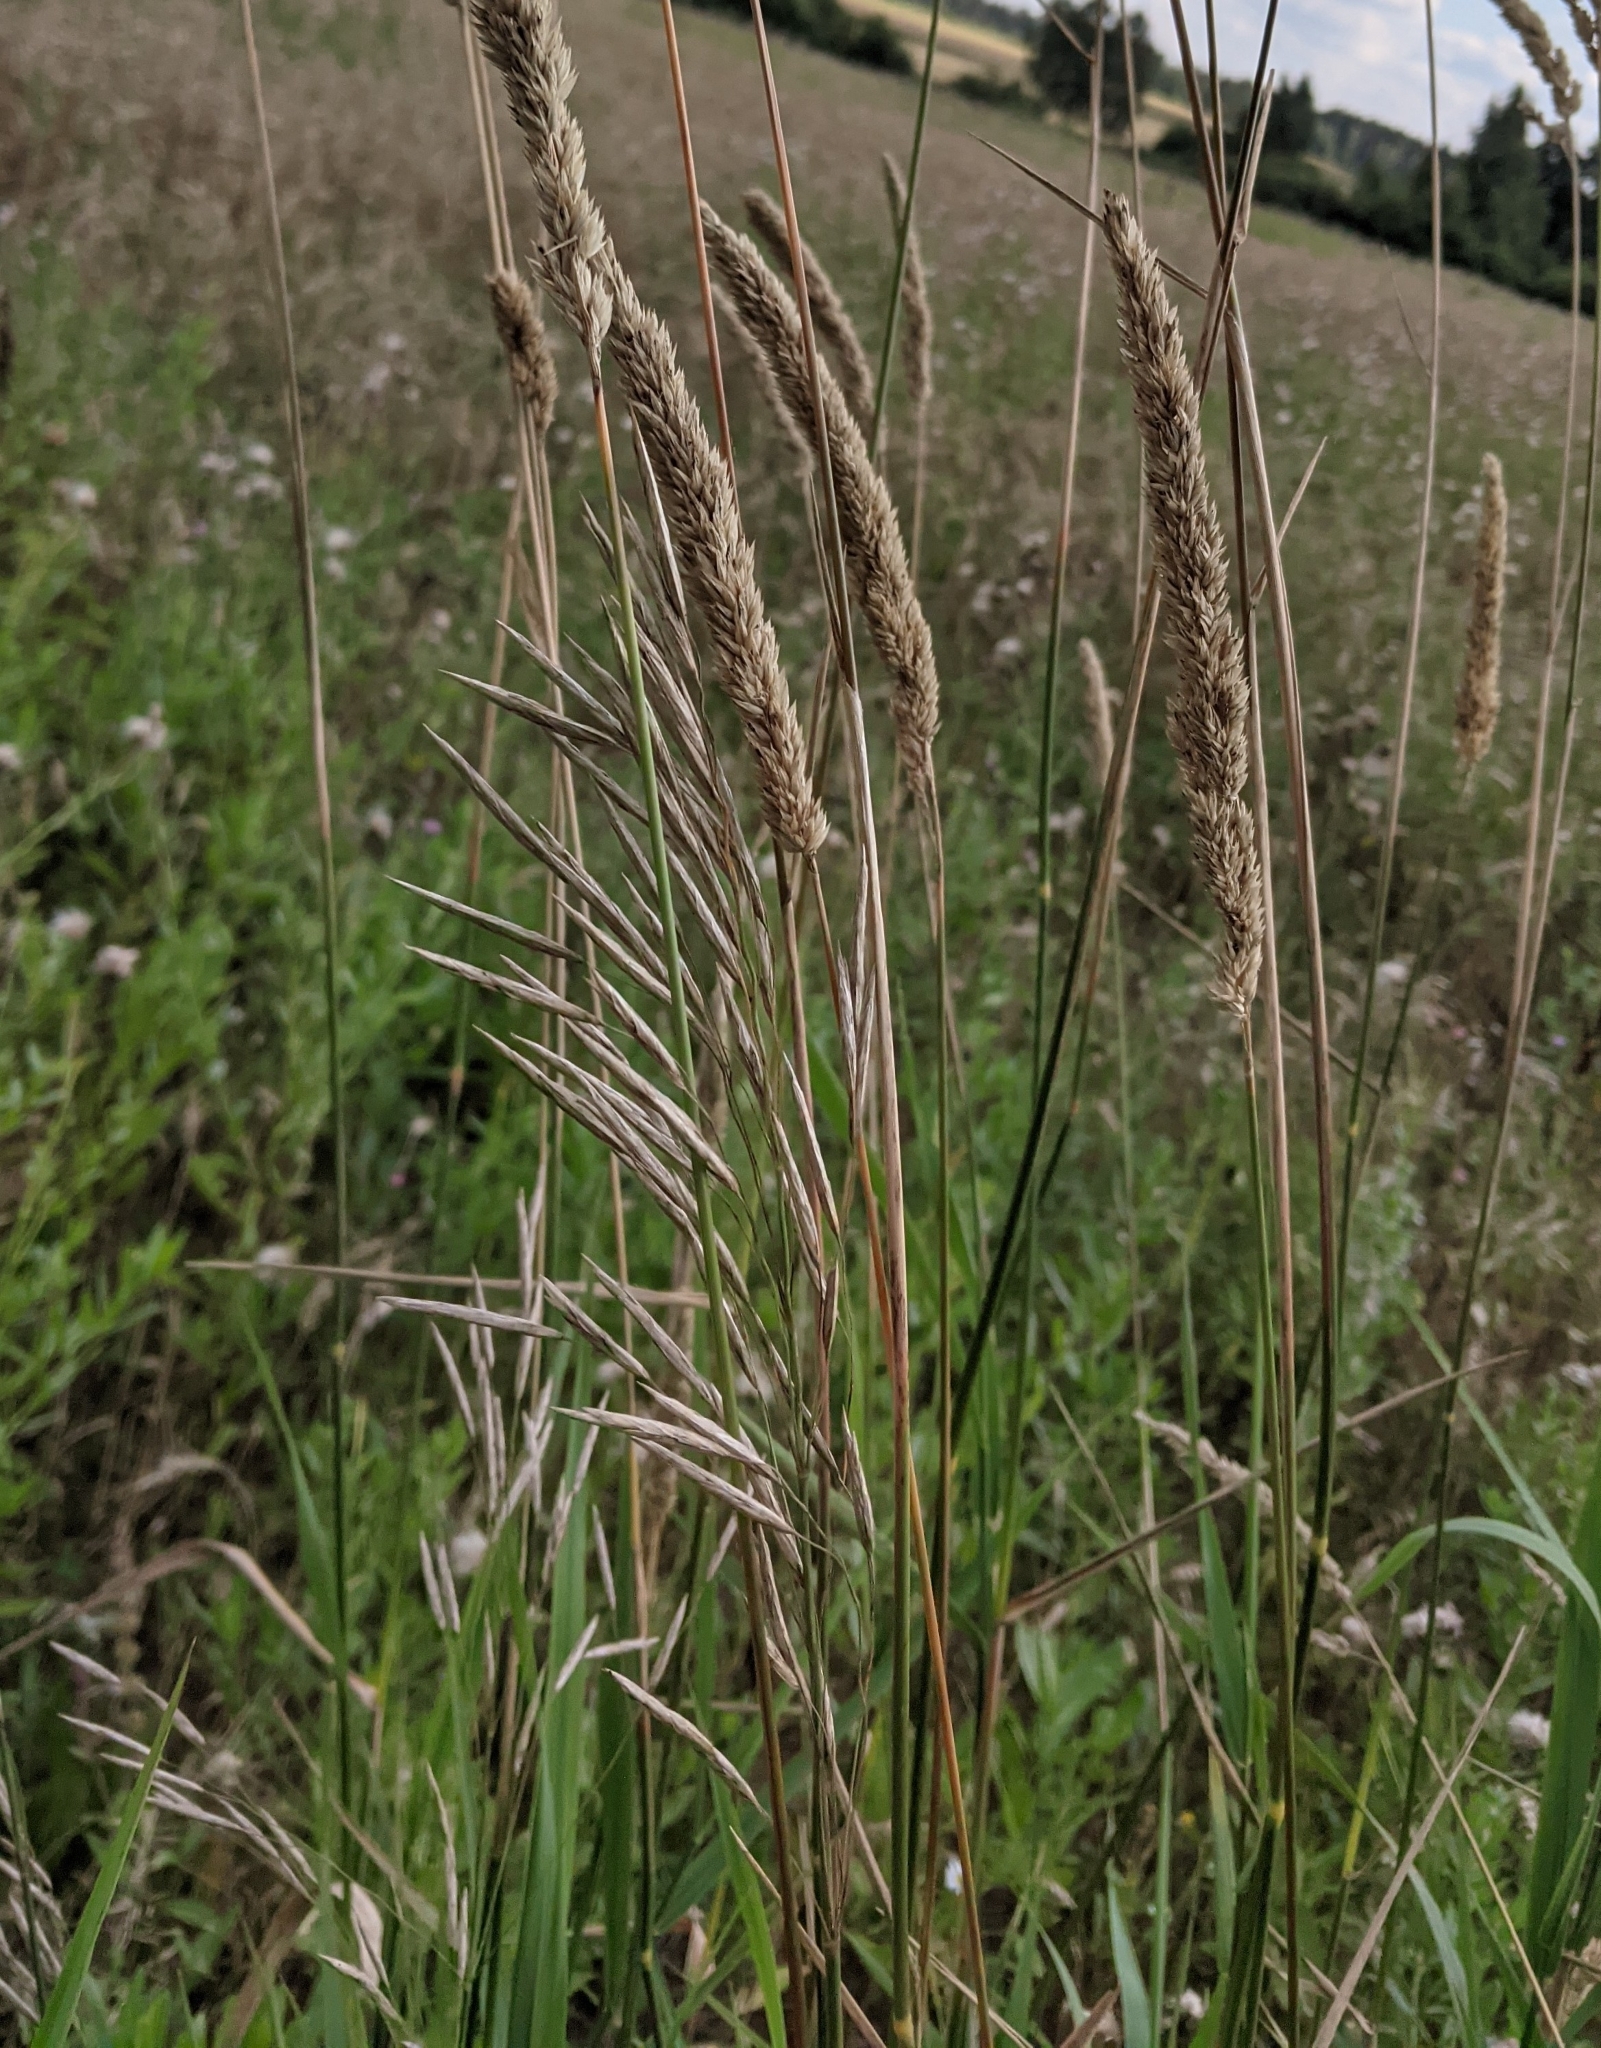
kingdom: Plantae
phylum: Tracheophyta
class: Liliopsida
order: Poales
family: Poaceae
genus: Phalaris
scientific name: Phalaris arundinacea
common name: Reed canary-grass
